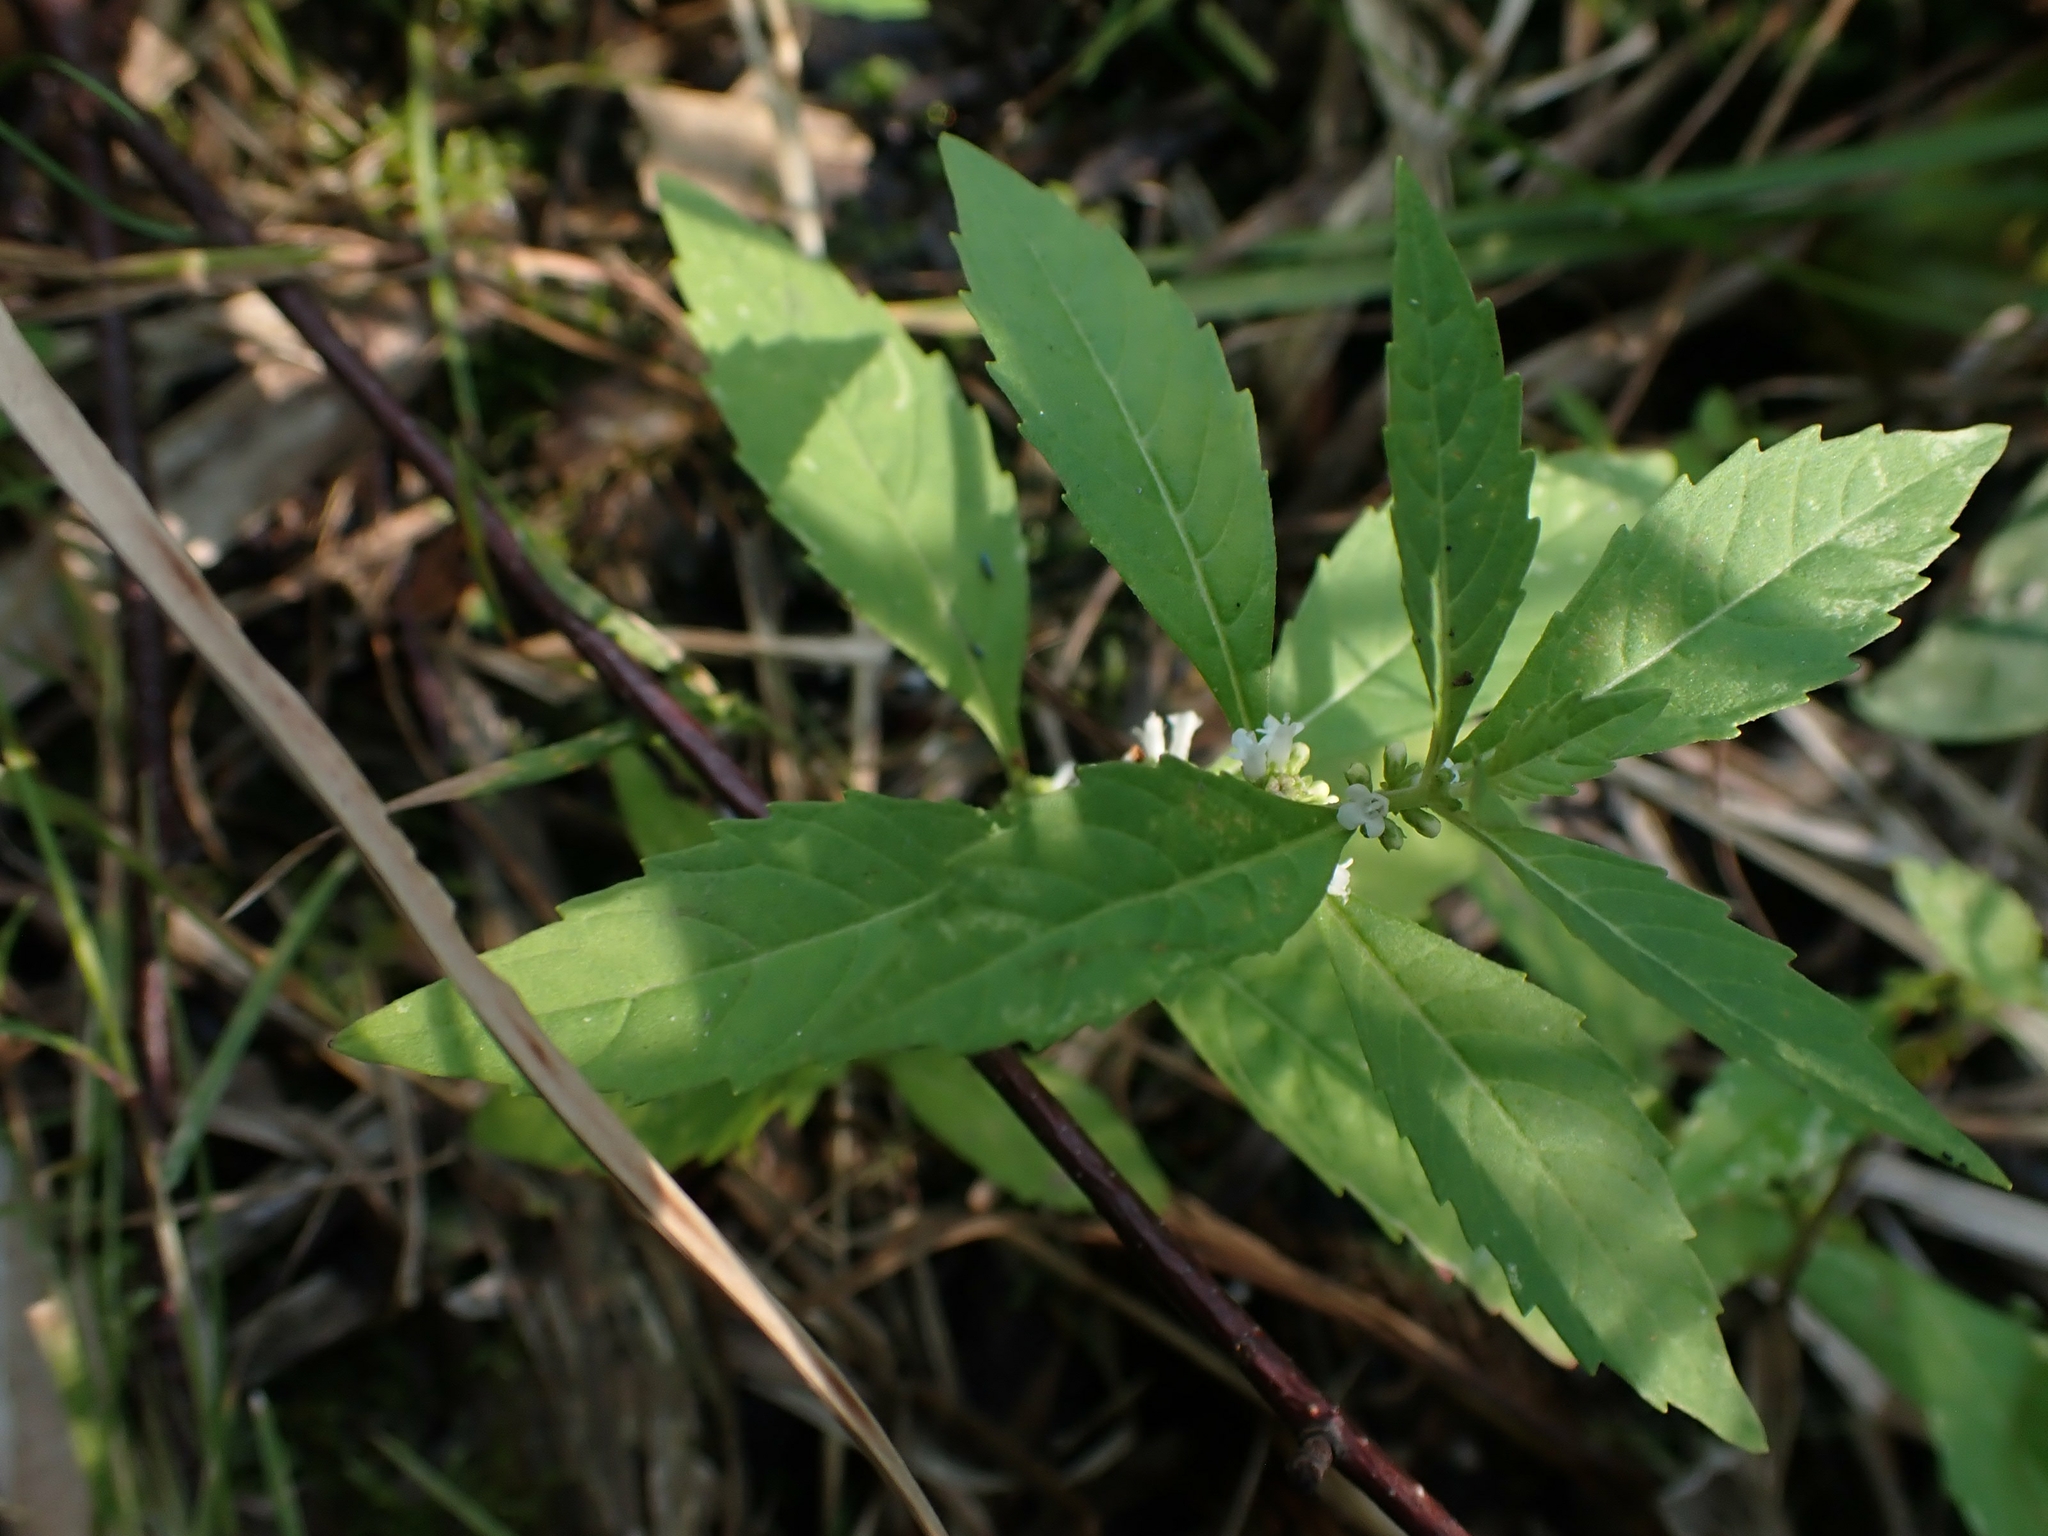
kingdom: Plantae
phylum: Tracheophyta
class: Magnoliopsida
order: Lamiales
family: Lamiaceae
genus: Lycopus
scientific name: Lycopus uniflorus
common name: Northern bugleweed
